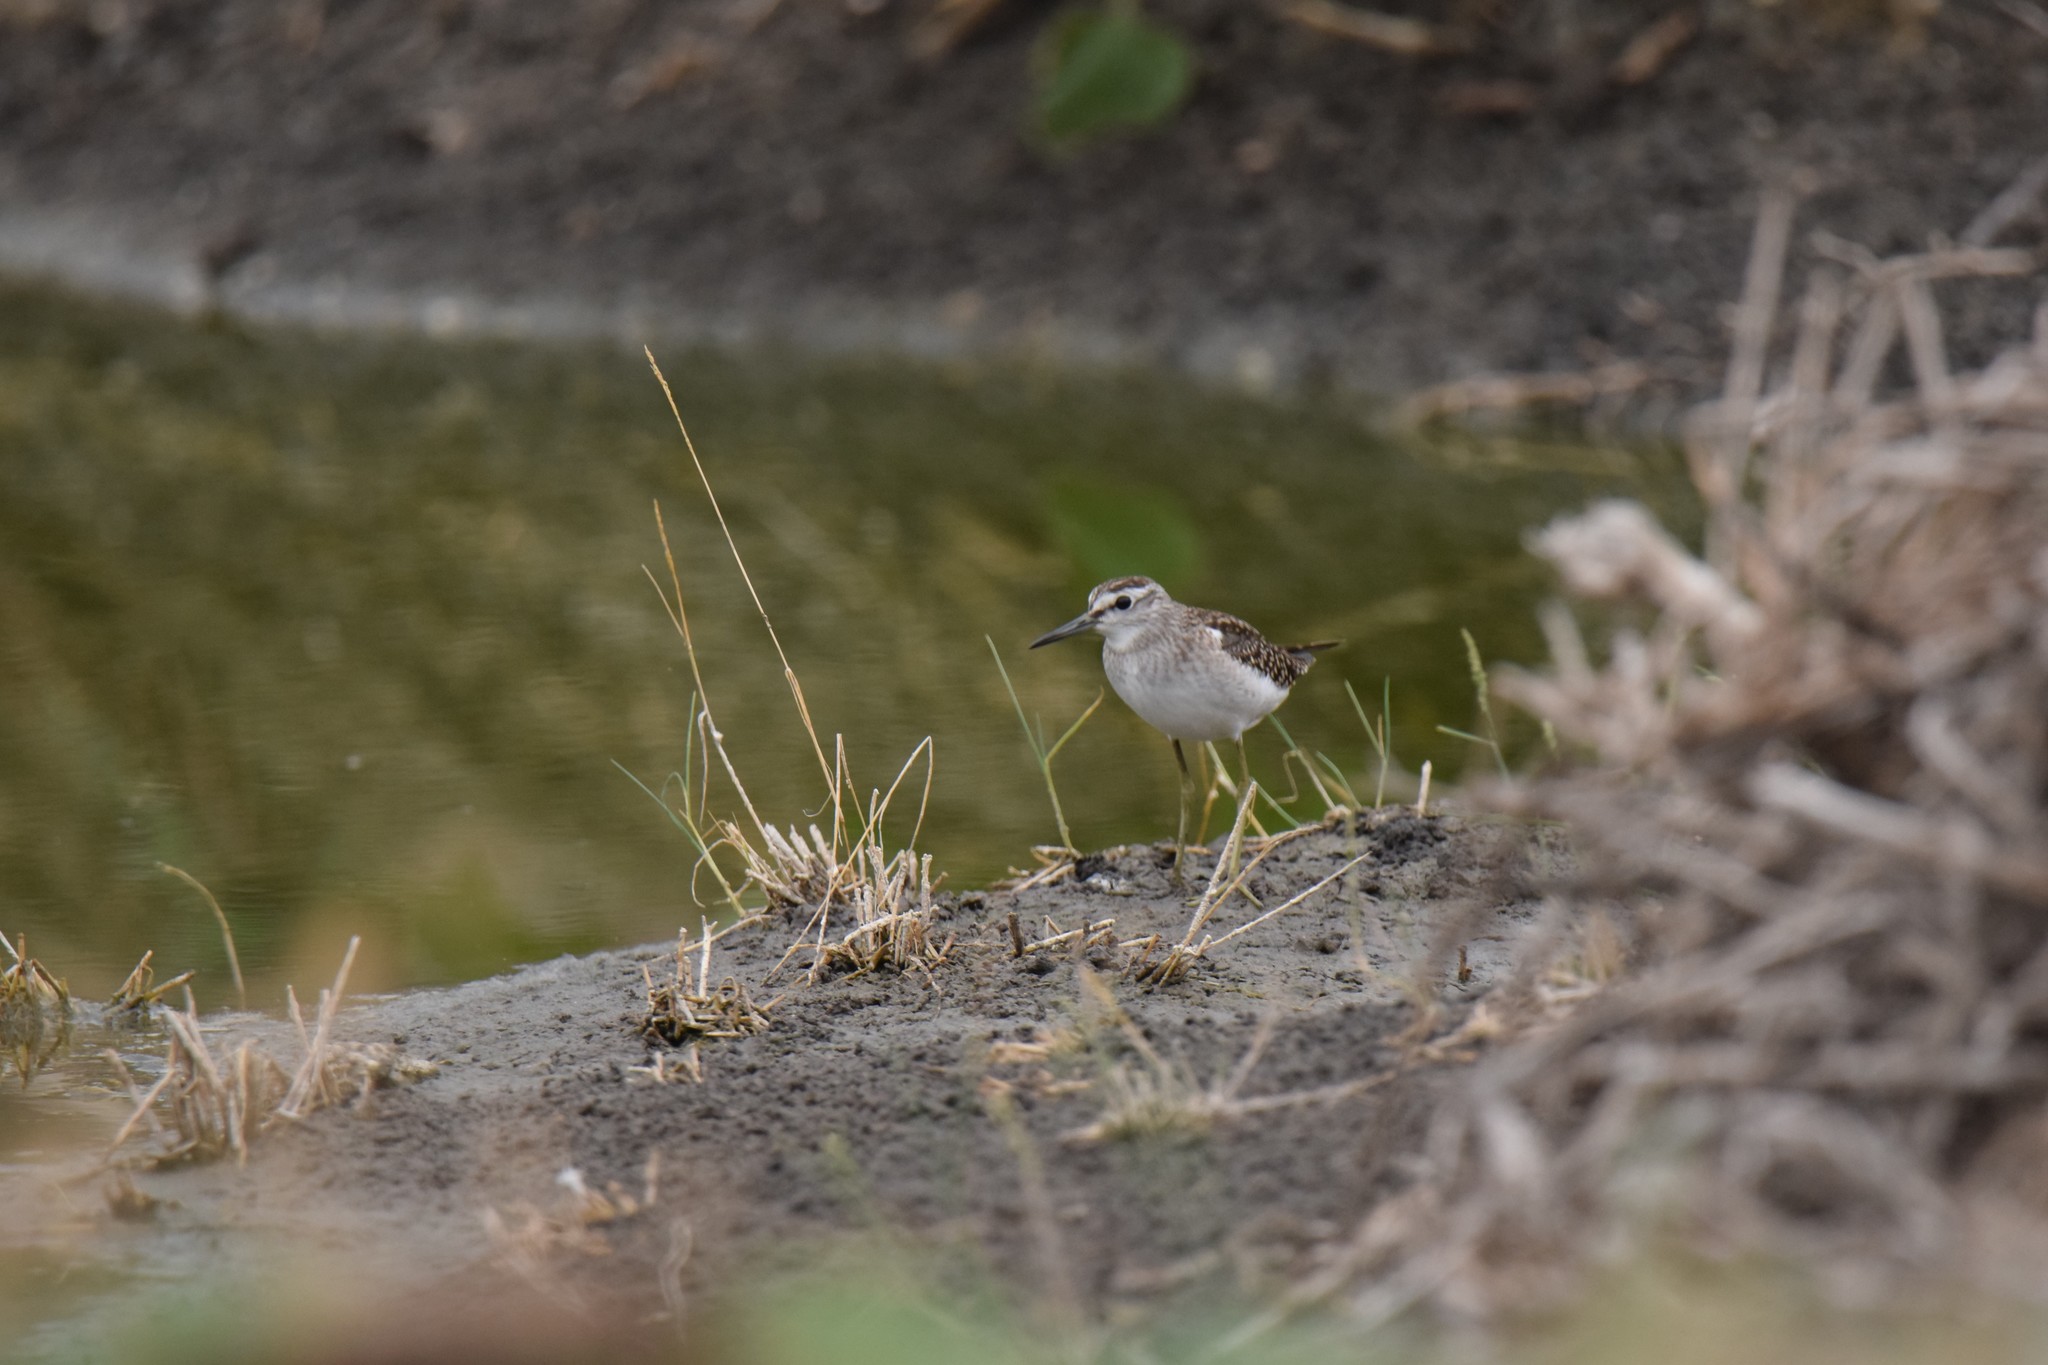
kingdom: Animalia
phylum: Chordata
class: Aves
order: Charadriiformes
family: Scolopacidae
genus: Tringa
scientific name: Tringa glareola
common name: Wood sandpiper
